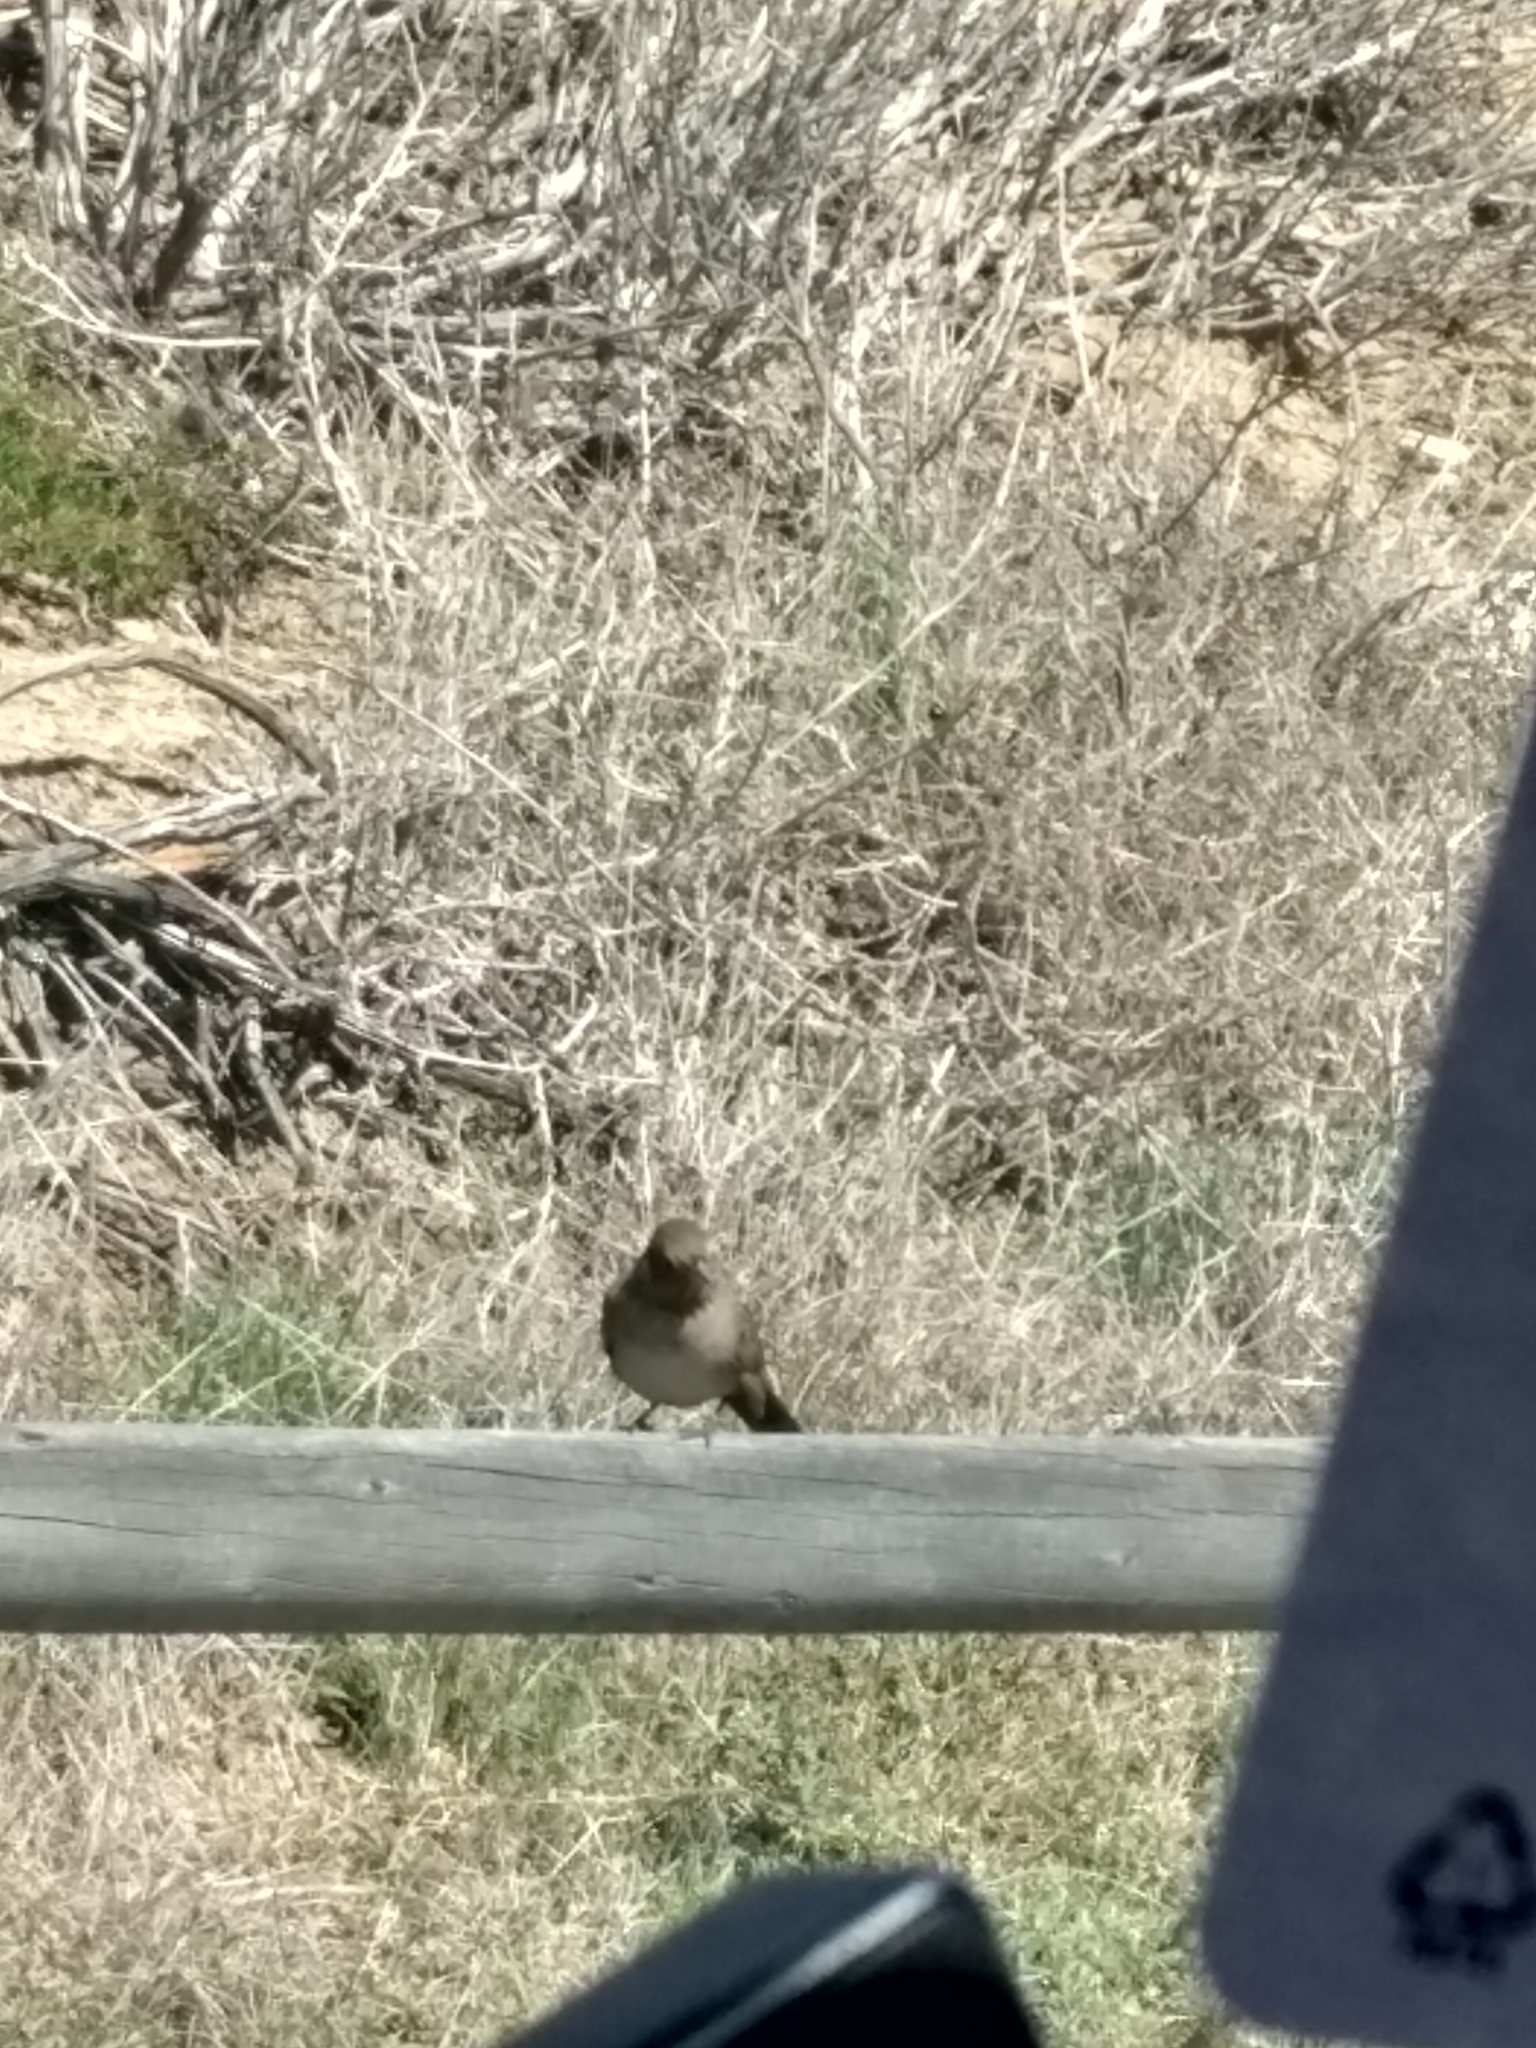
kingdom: Animalia
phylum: Chordata
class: Aves
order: Passeriformes
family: Passerellidae
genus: Melozone
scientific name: Melozone crissalis
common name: California towhee
